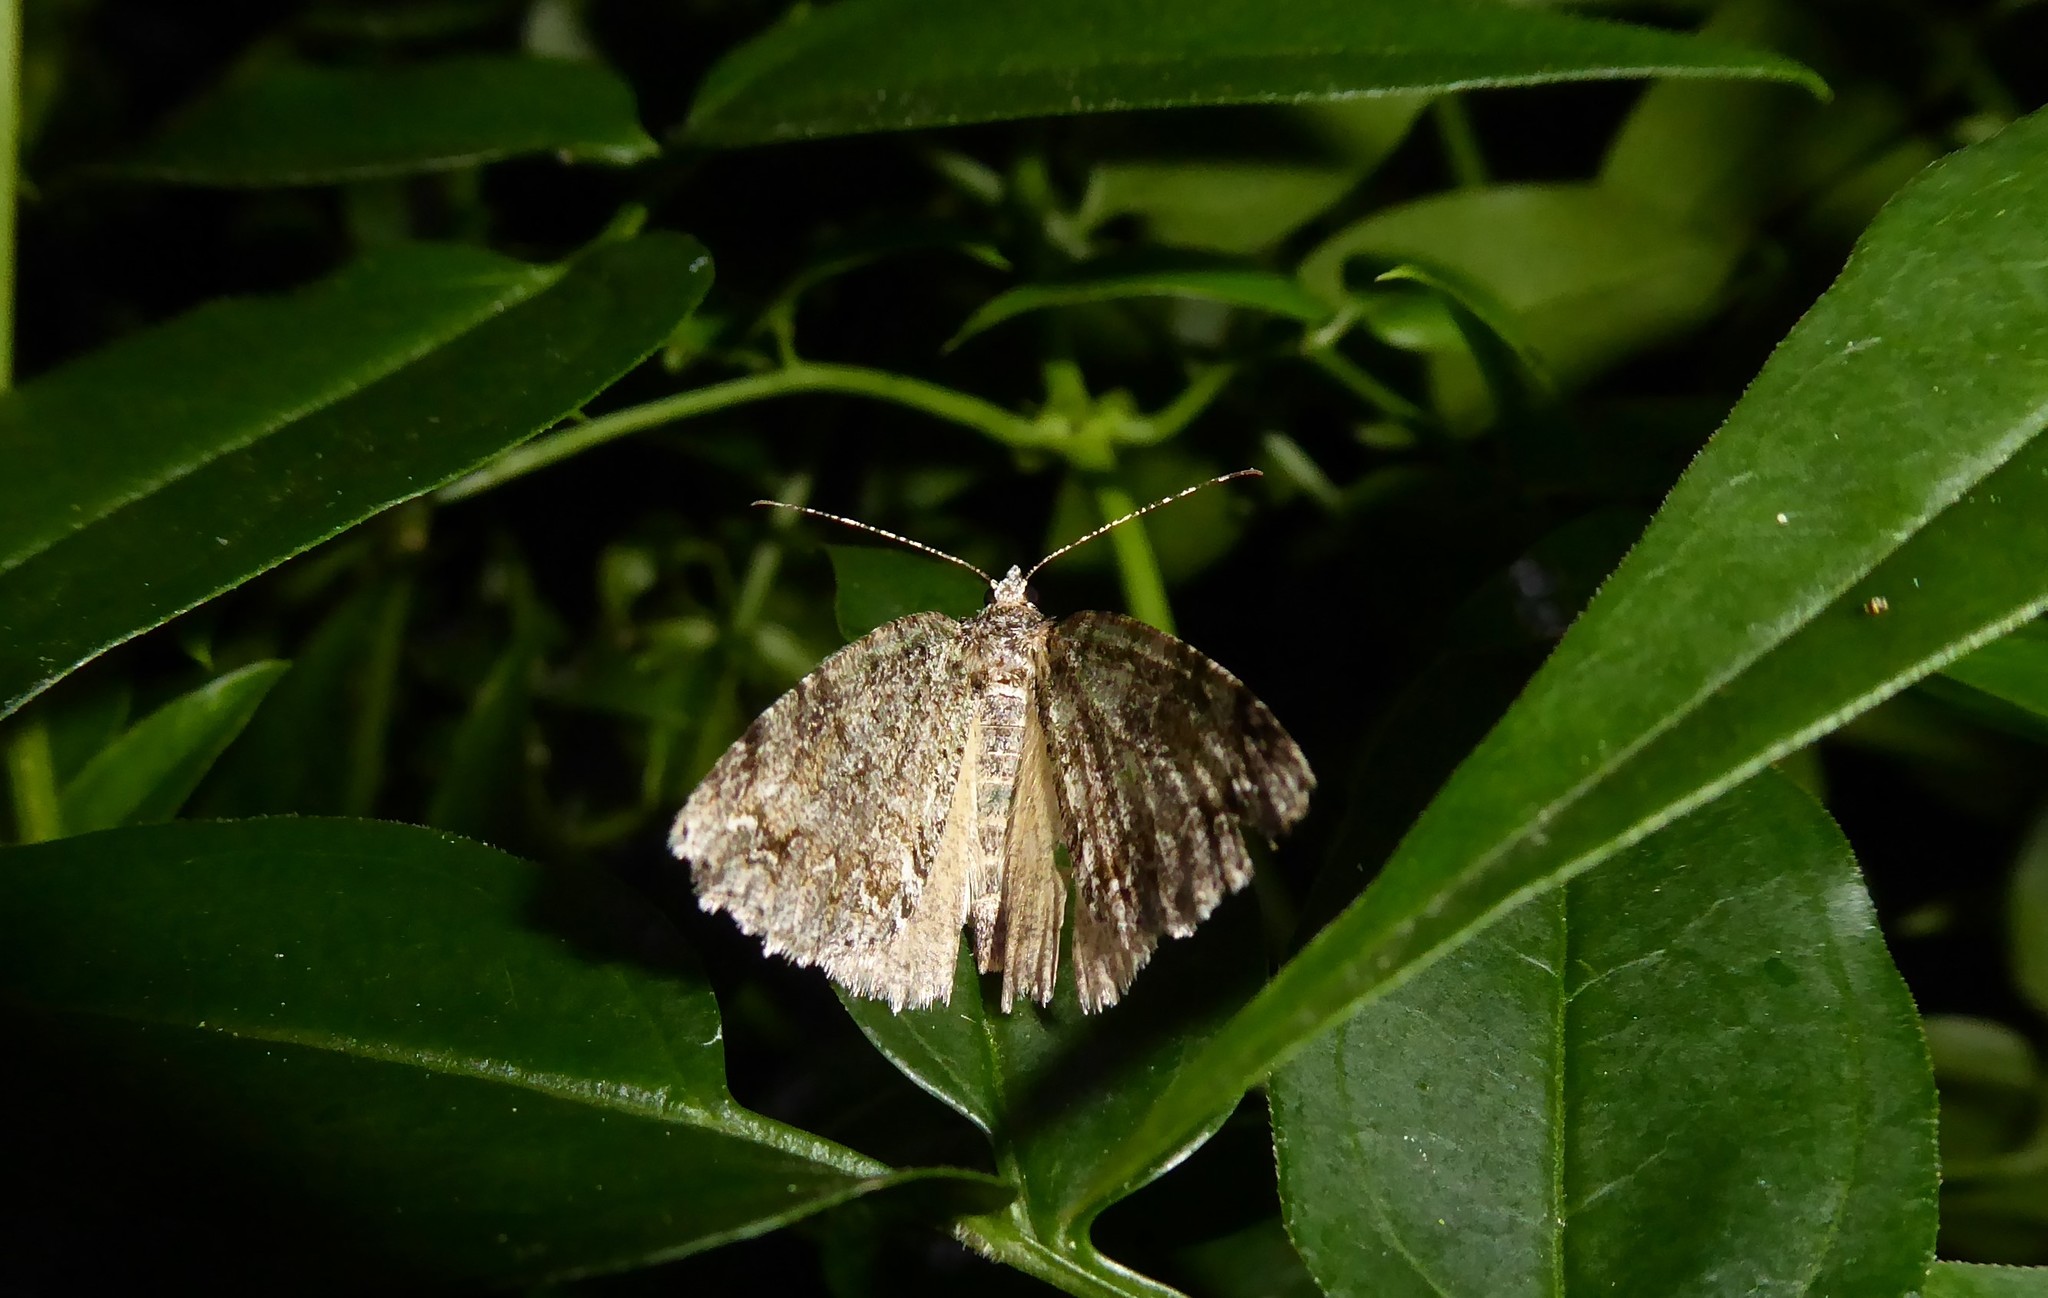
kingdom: Animalia
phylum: Arthropoda
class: Insecta
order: Lepidoptera
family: Geometridae
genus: Pseudocoremia
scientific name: Pseudocoremia suavis
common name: Common forest looper
